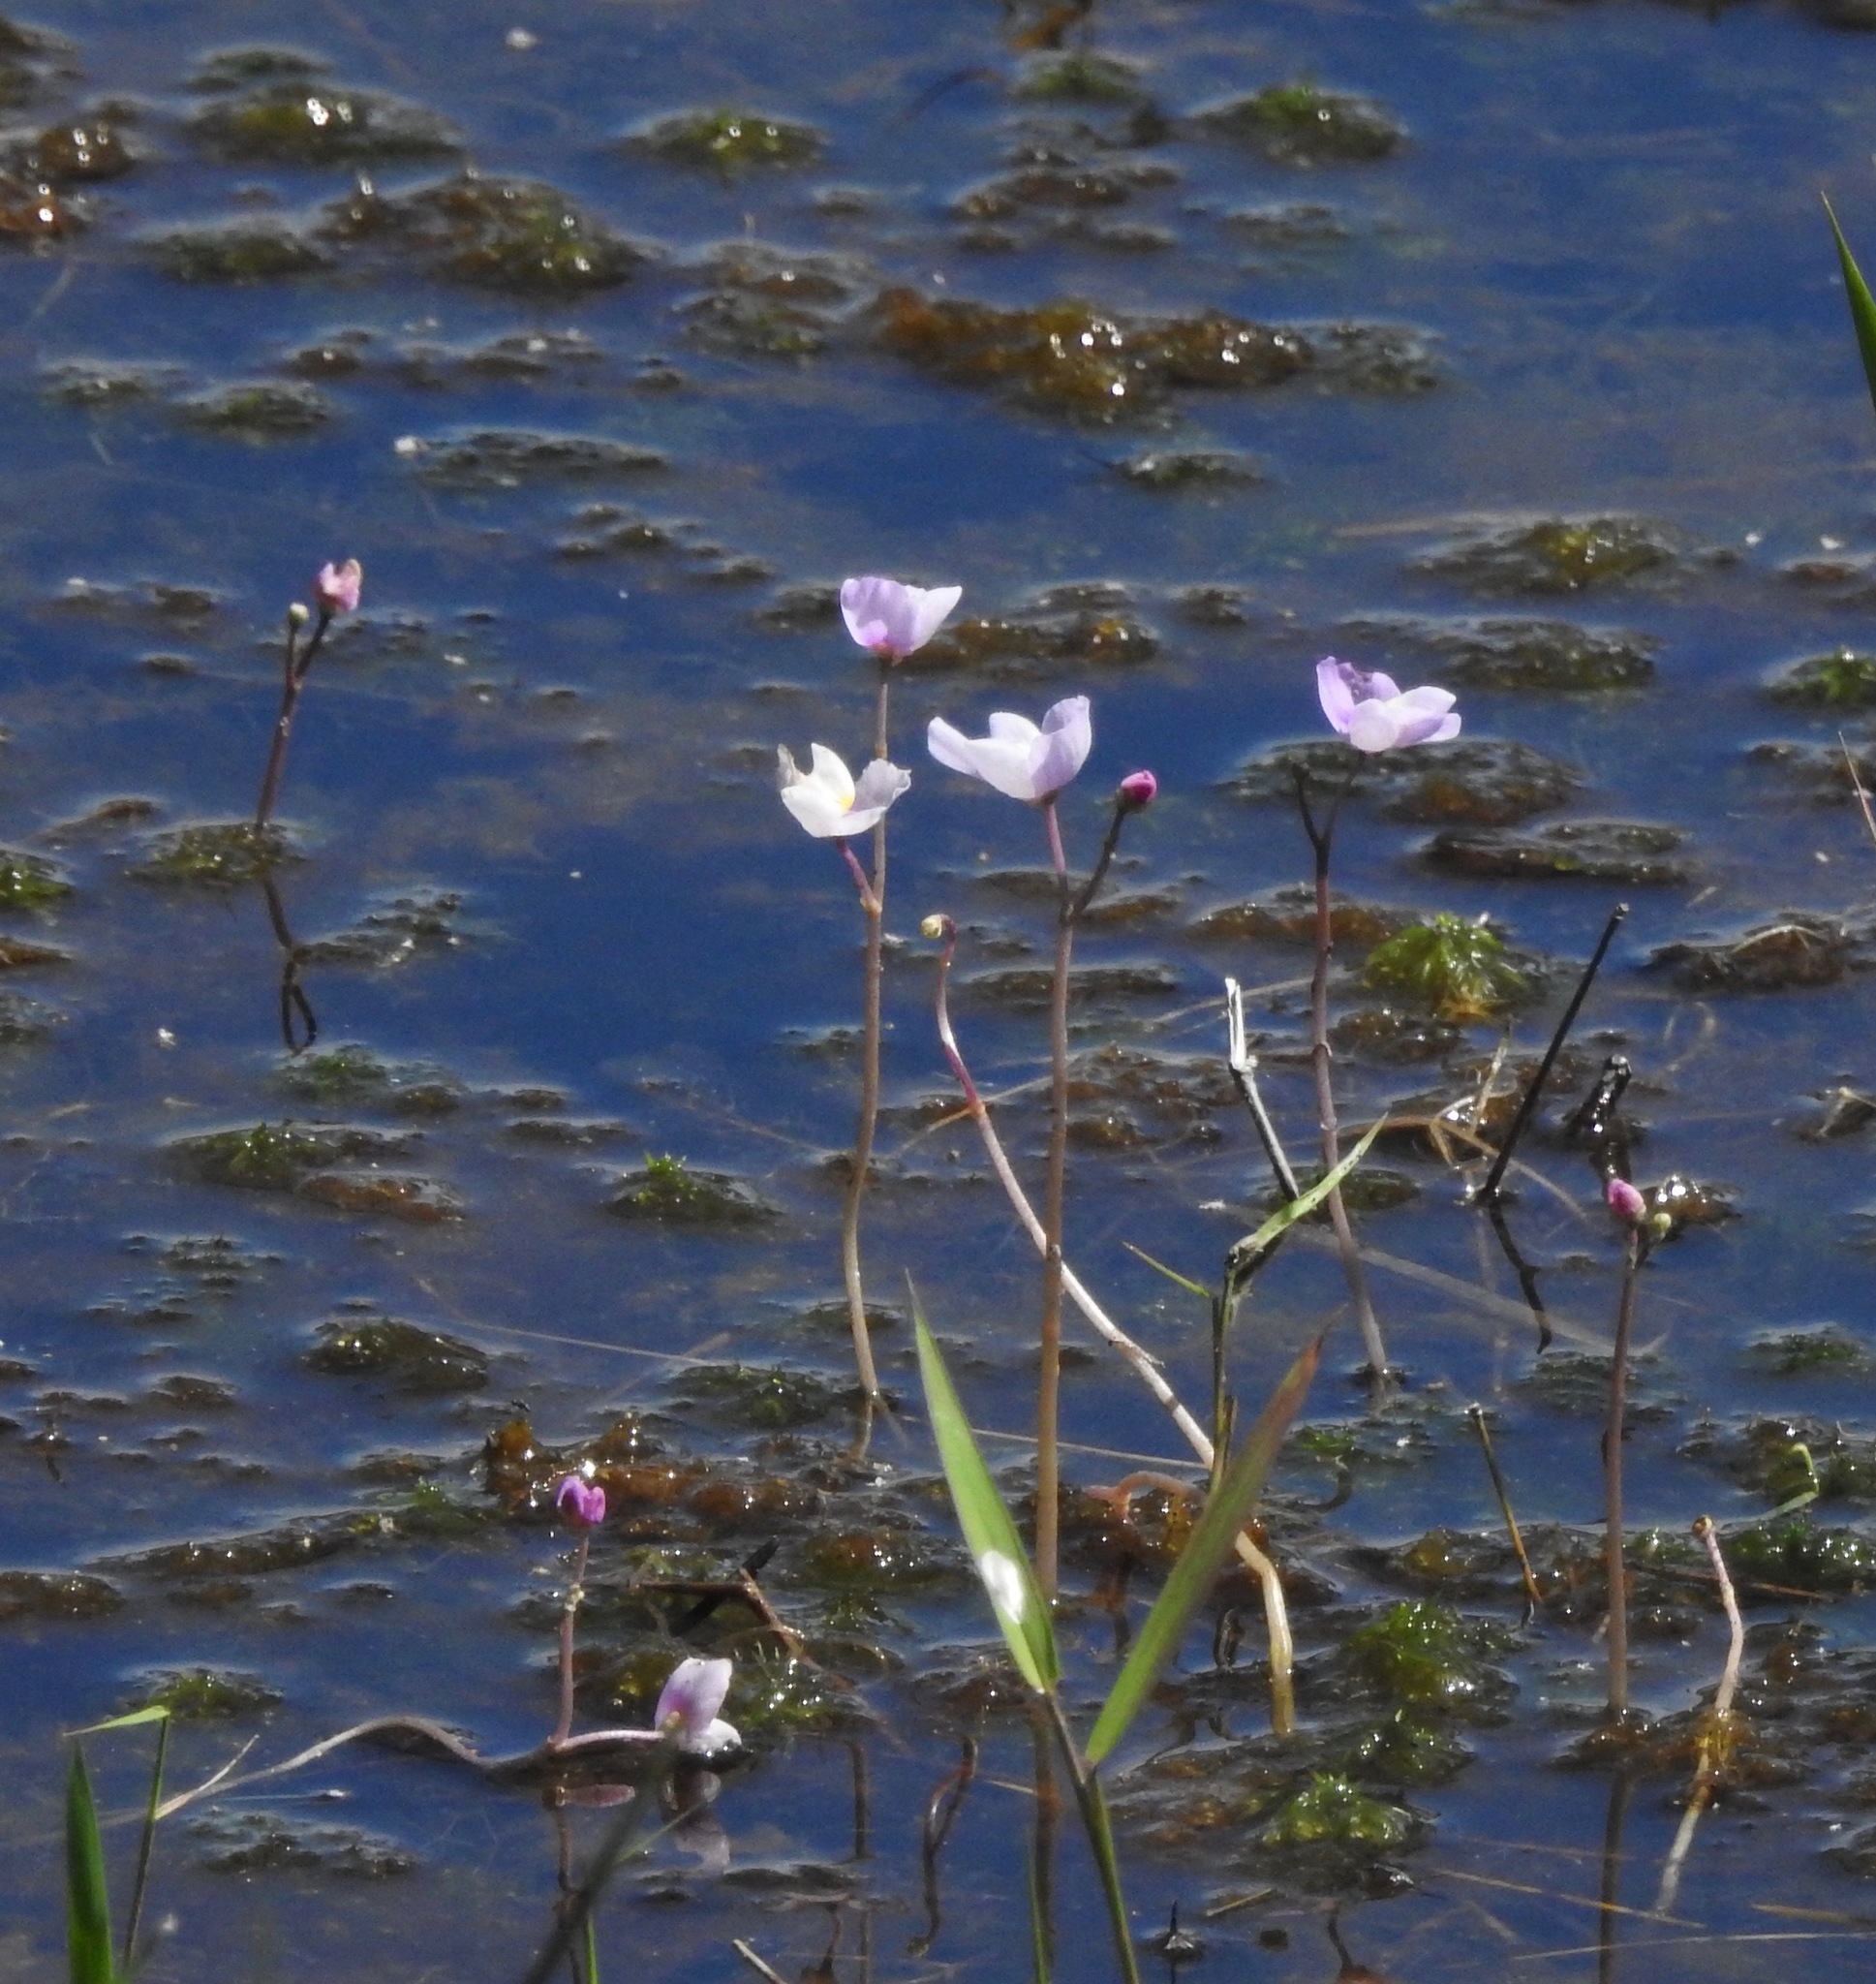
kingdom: Plantae
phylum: Tracheophyta
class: Magnoliopsida
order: Lamiales
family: Lentibulariaceae
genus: Utricularia
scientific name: Utricularia purpurea
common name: Eastern purple bladderwort
